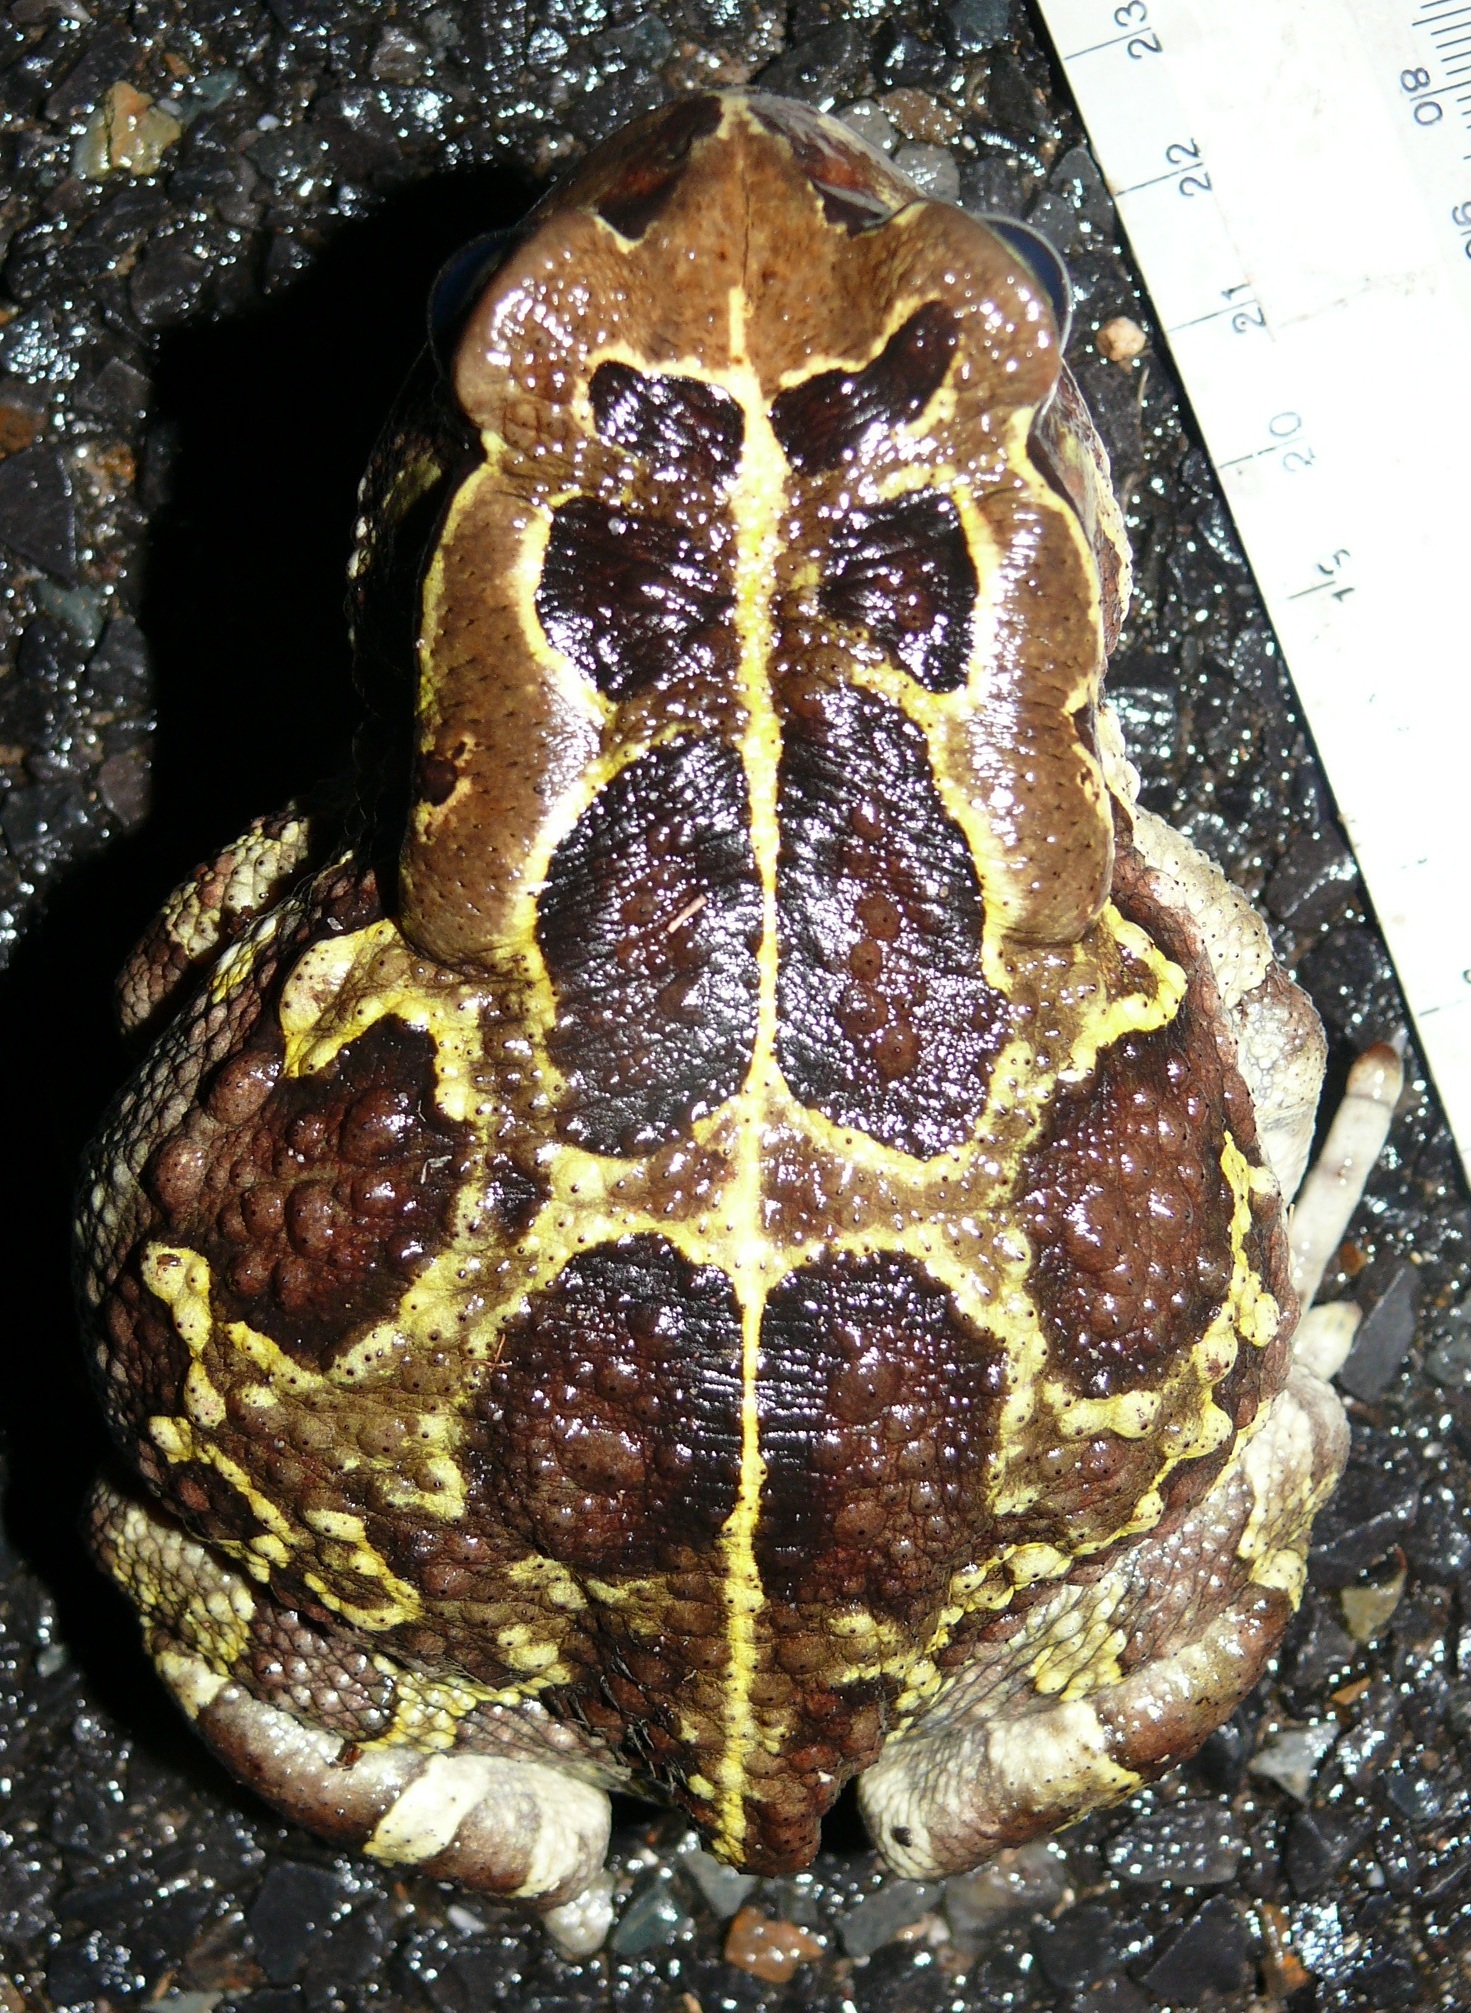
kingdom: Animalia
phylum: Chordata
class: Amphibia
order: Anura
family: Bufonidae
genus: Sclerophrys
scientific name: Sclerophrys pantherina
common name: Panther toad
